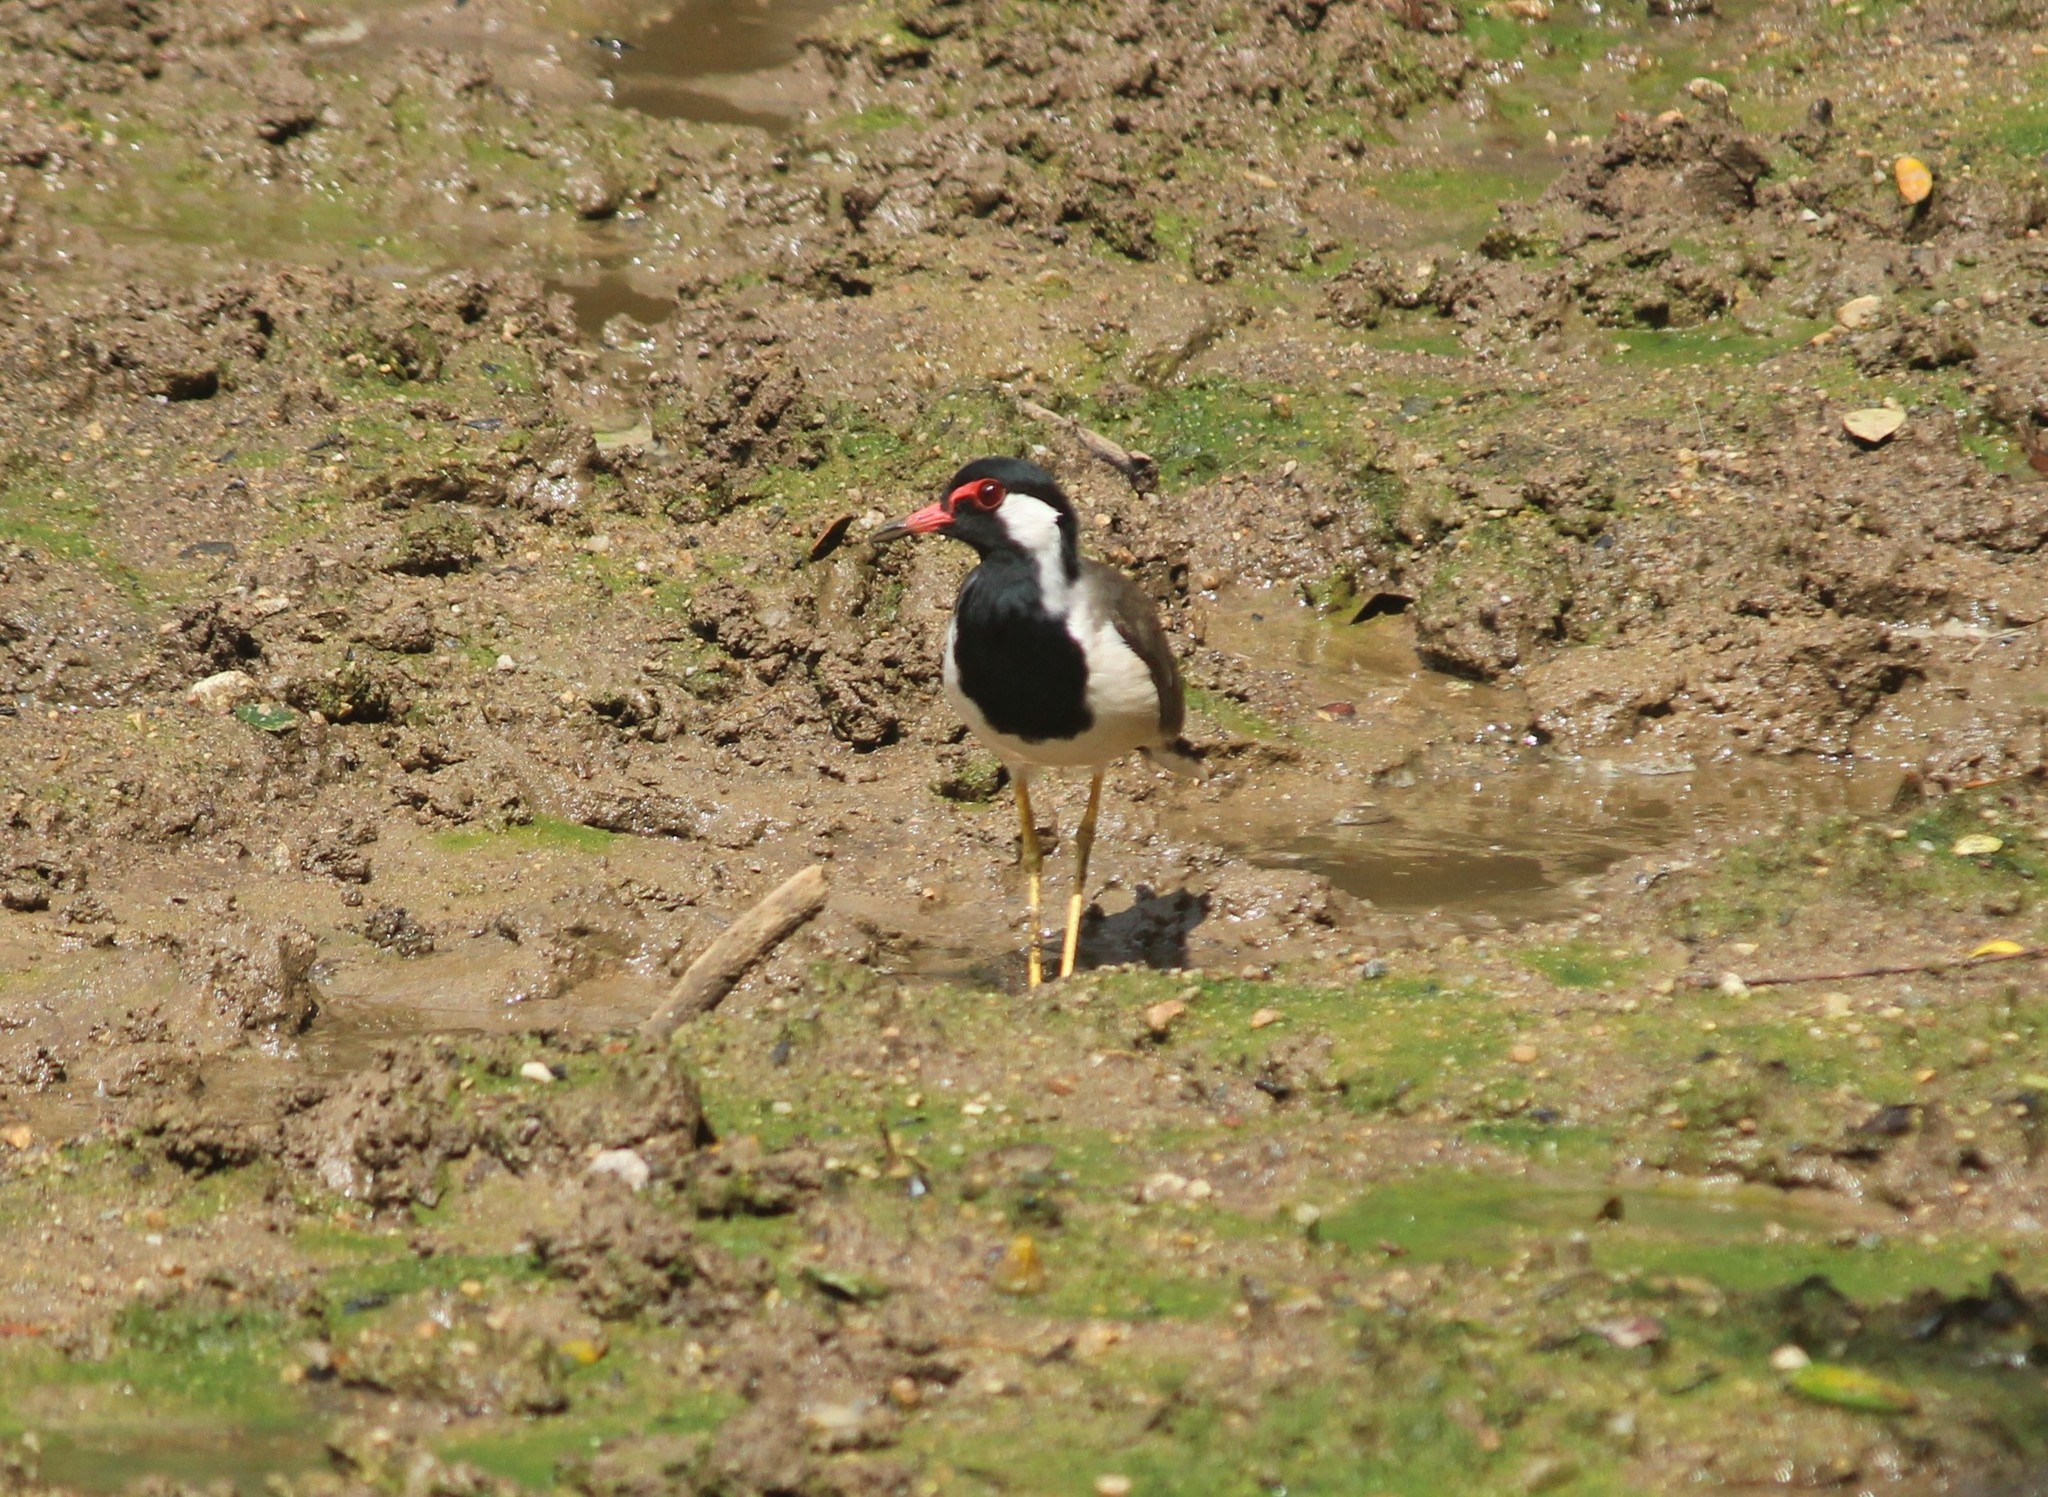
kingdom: Animalia
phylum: Chordata
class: Aves
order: Charadriiformes
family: Charadriidae
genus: Vanellus
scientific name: Vanellus indicus
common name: Red-wattled lapwing
